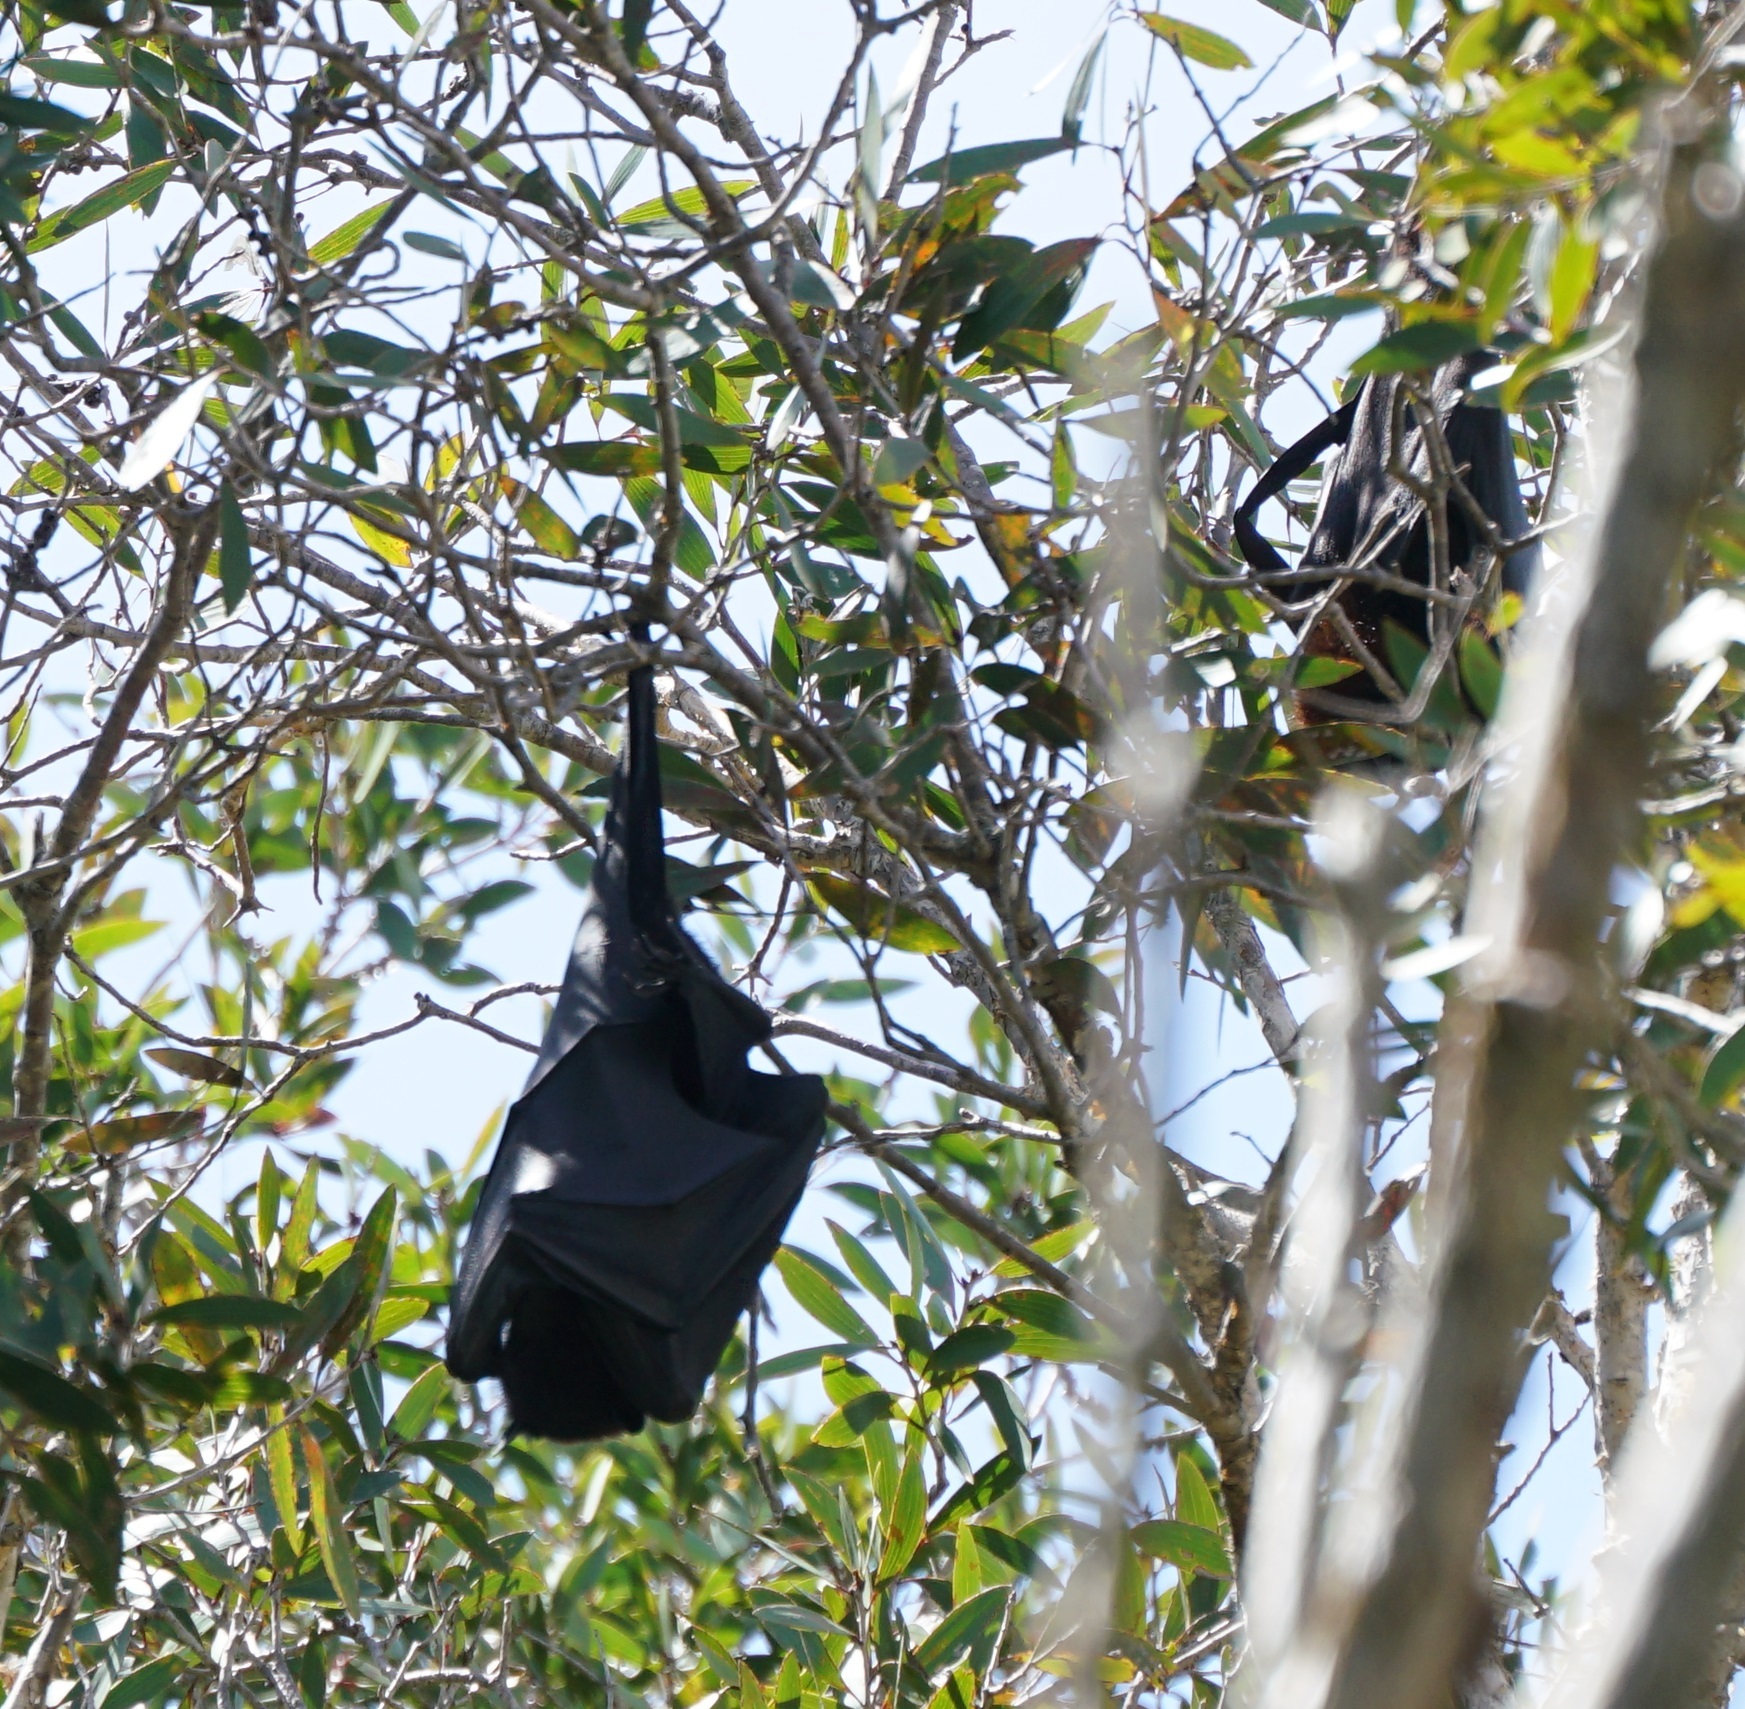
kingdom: Animalia
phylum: Chordata
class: Mammalia
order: Chiroptera
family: Pteropodidae
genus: Pteropus
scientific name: Pteropus alecto
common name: Black flying fox
